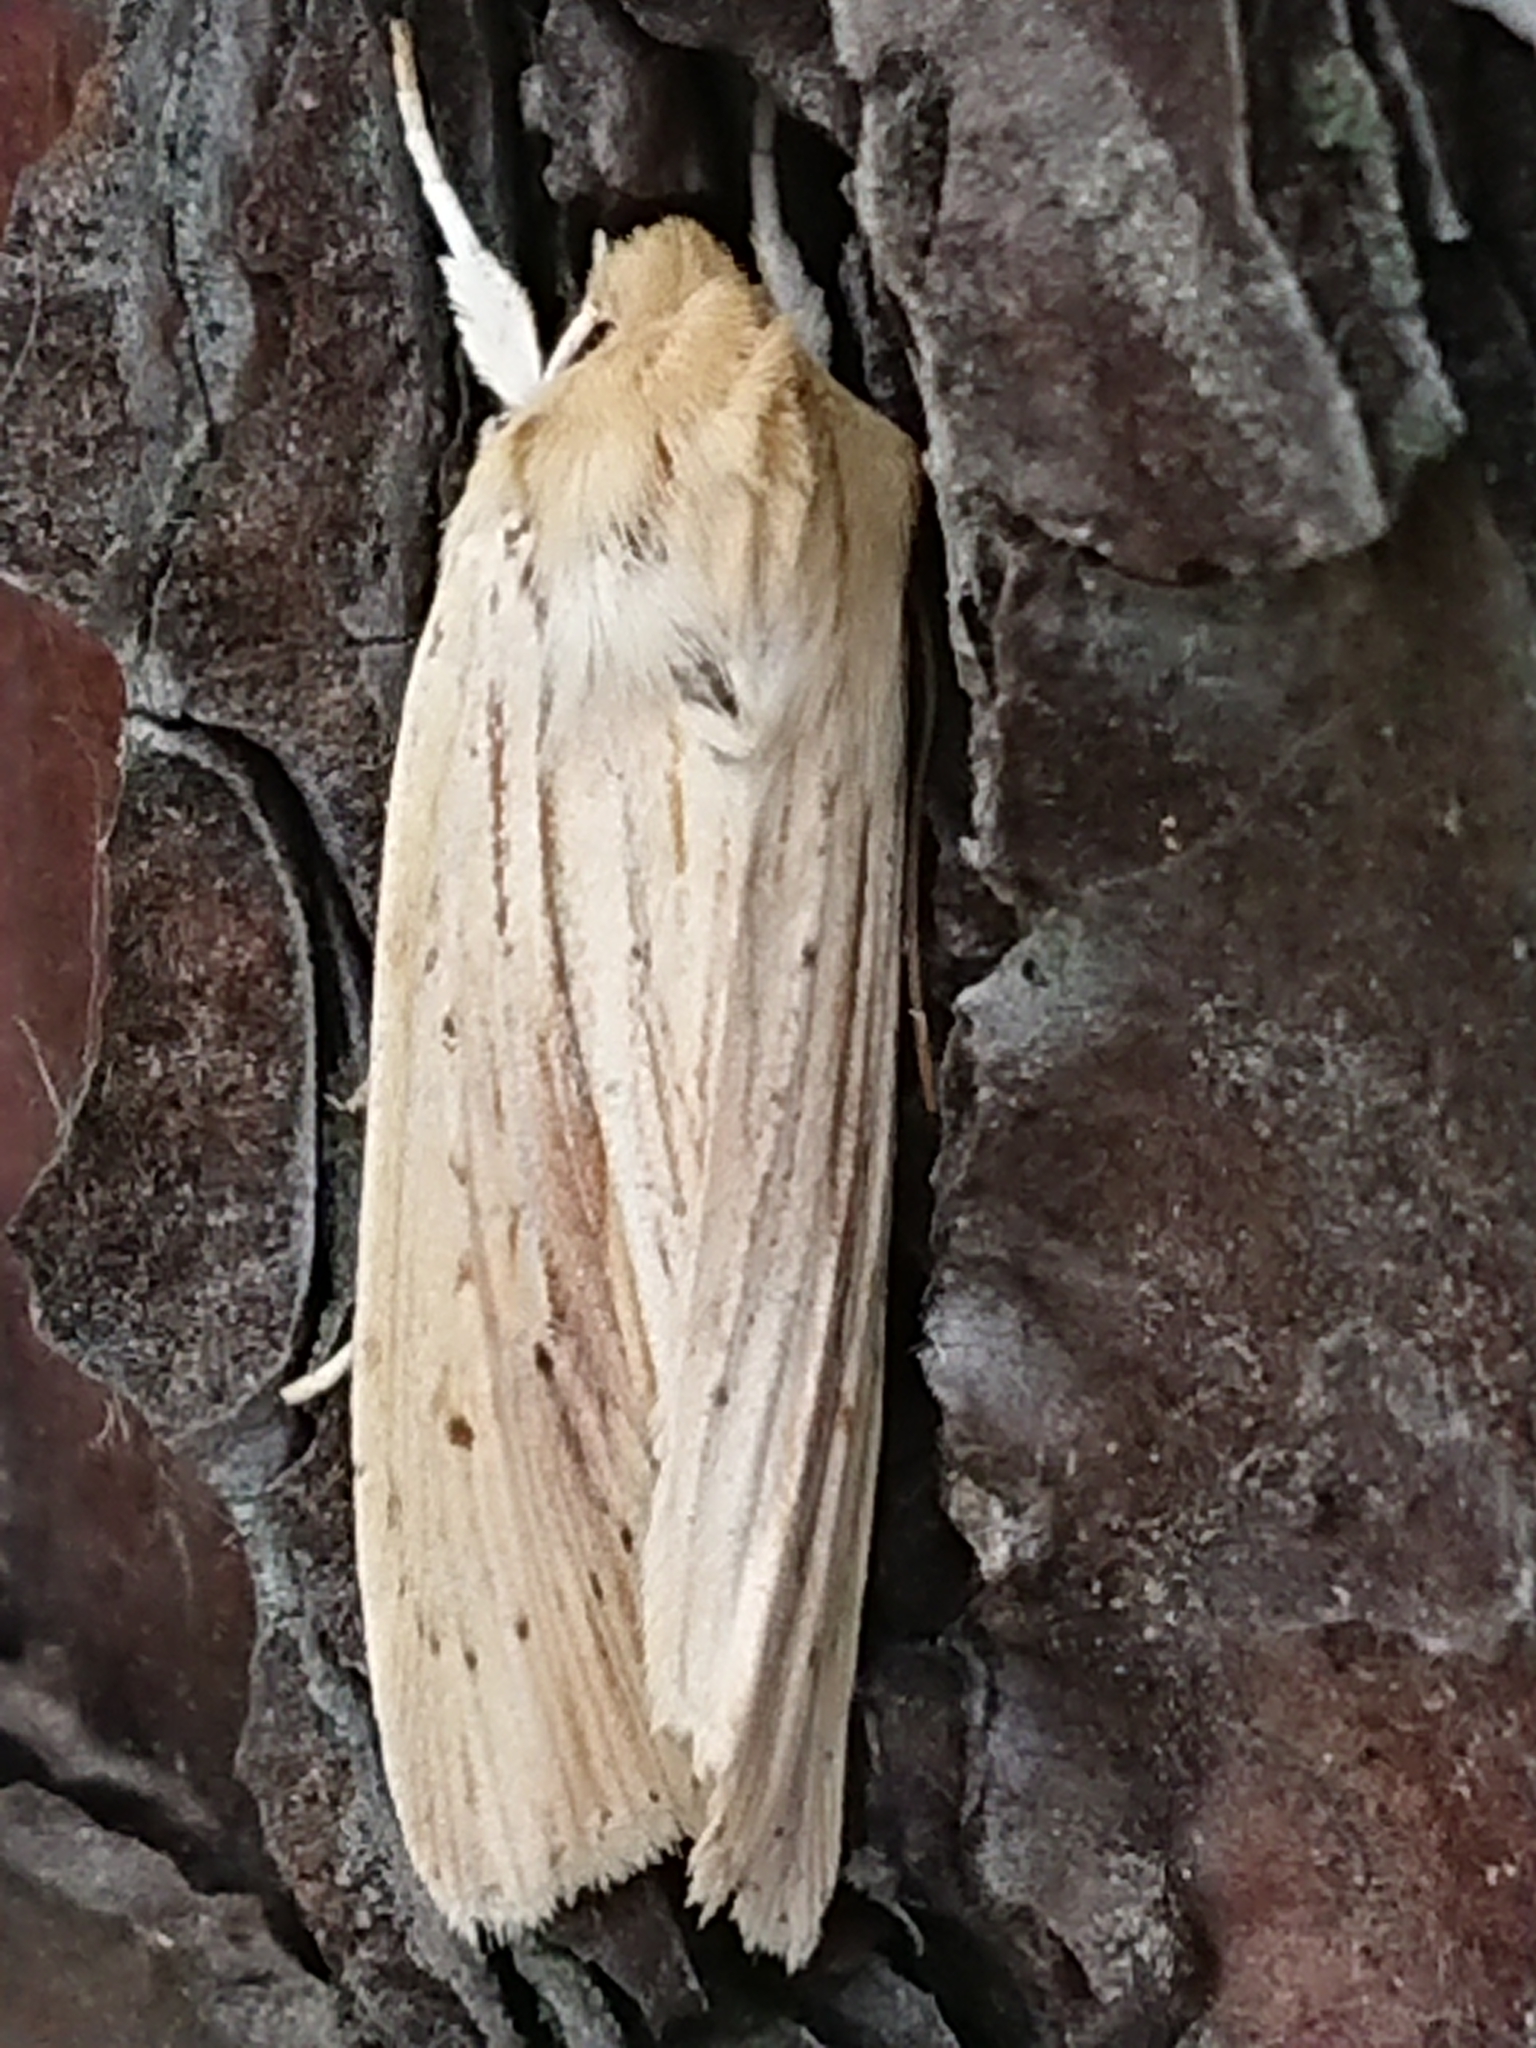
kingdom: Animalia
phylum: Arthropoda
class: Insecta
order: Lepidoptera
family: Noctuidae
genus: Ichneutica
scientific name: Ichneutica semivittata
